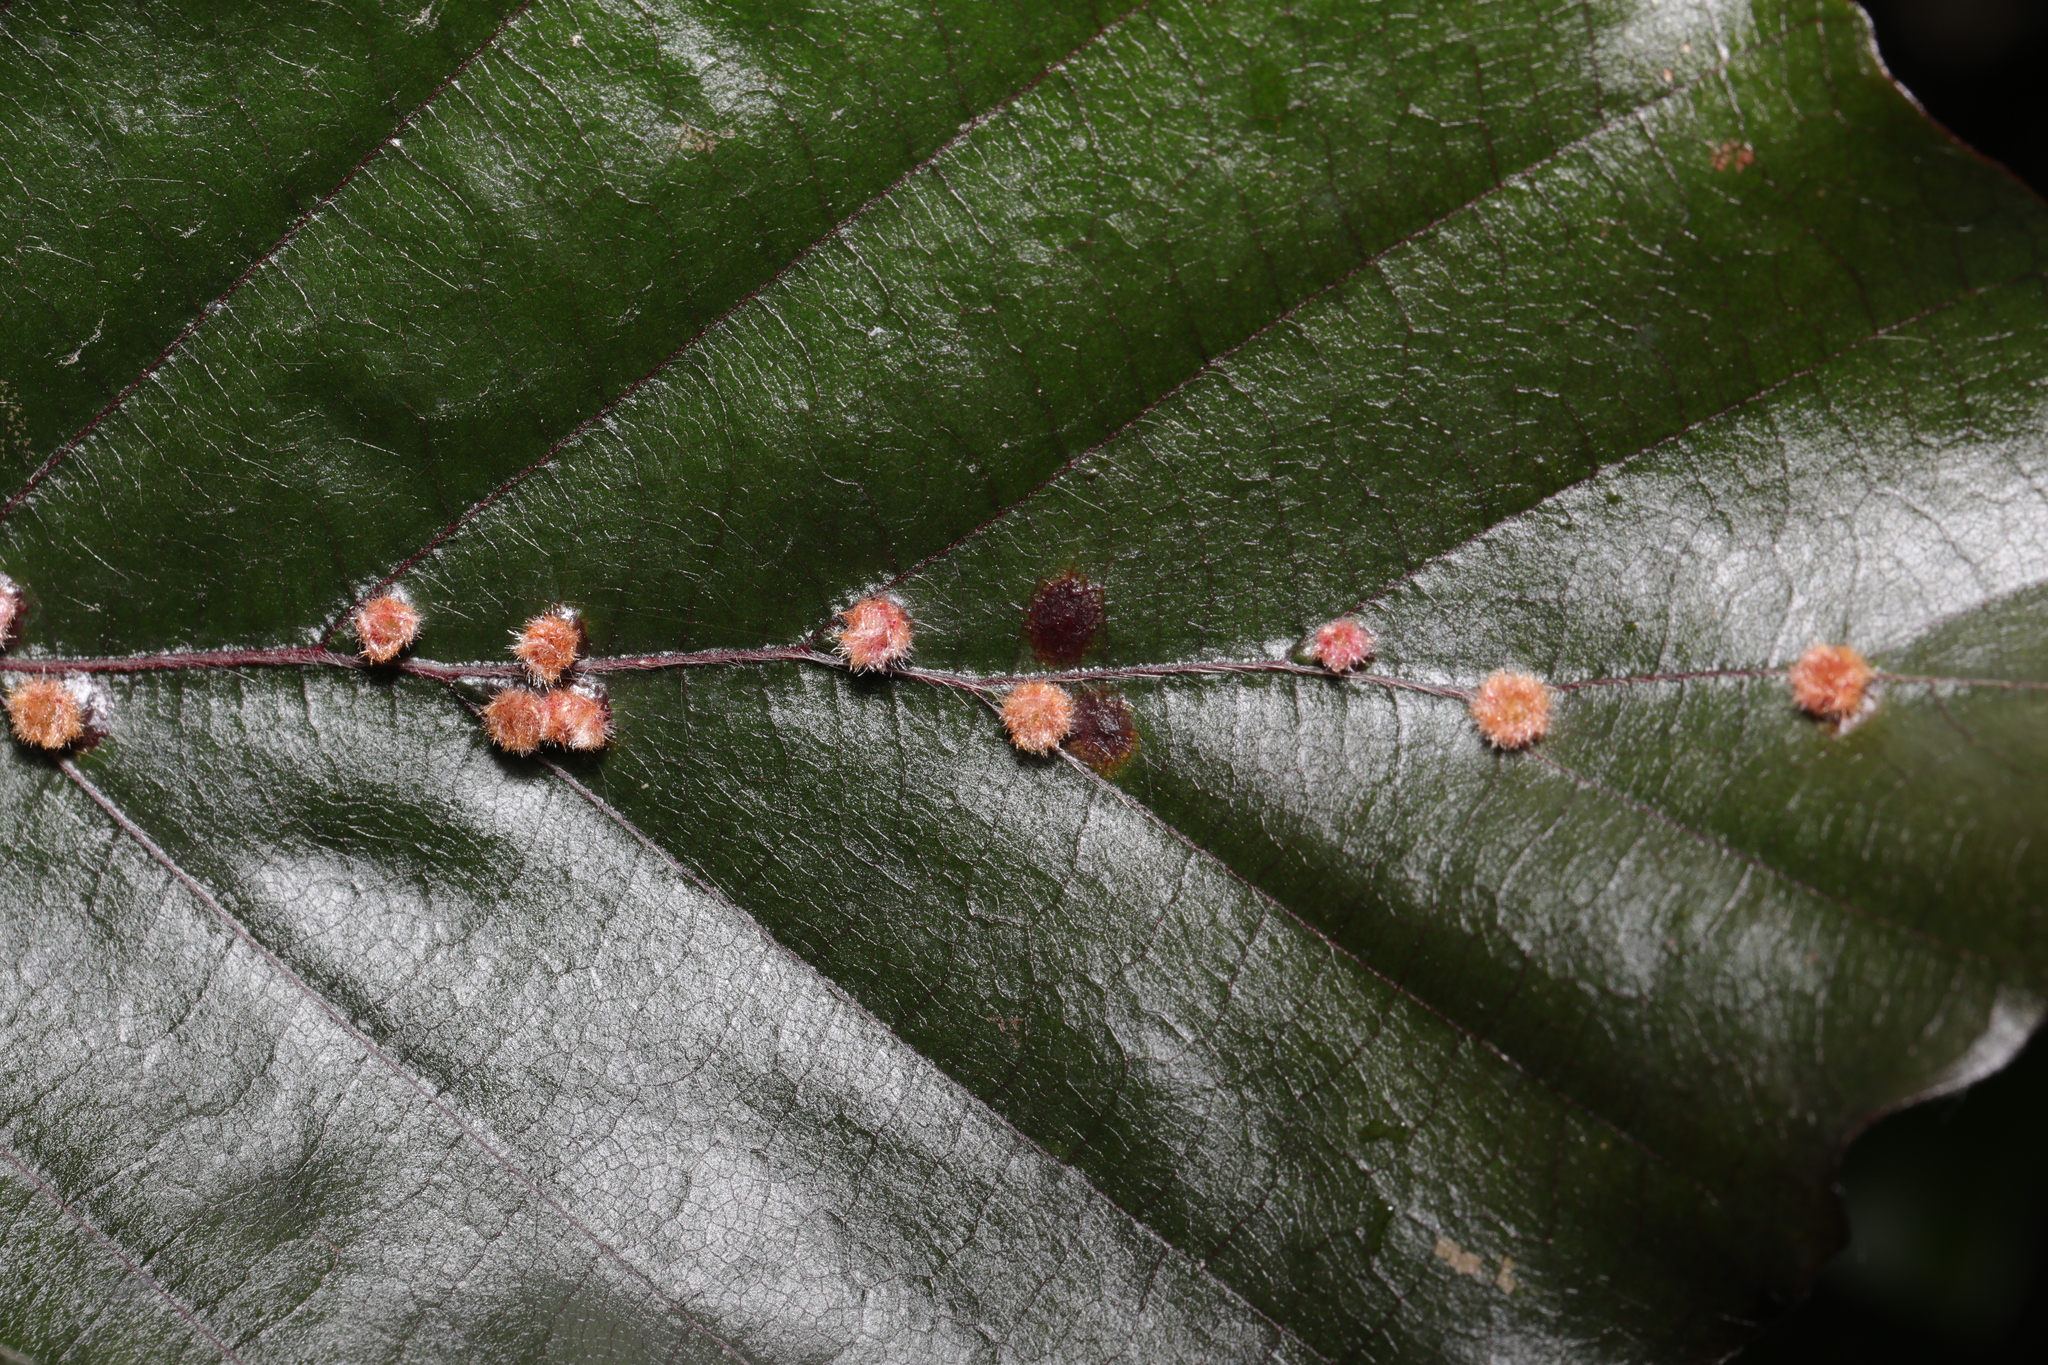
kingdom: Animalia
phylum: Arthropoda
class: Insecta
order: Diptera
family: Cecidomyiidae
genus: Hartigiola
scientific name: Hartigiola annulipes
